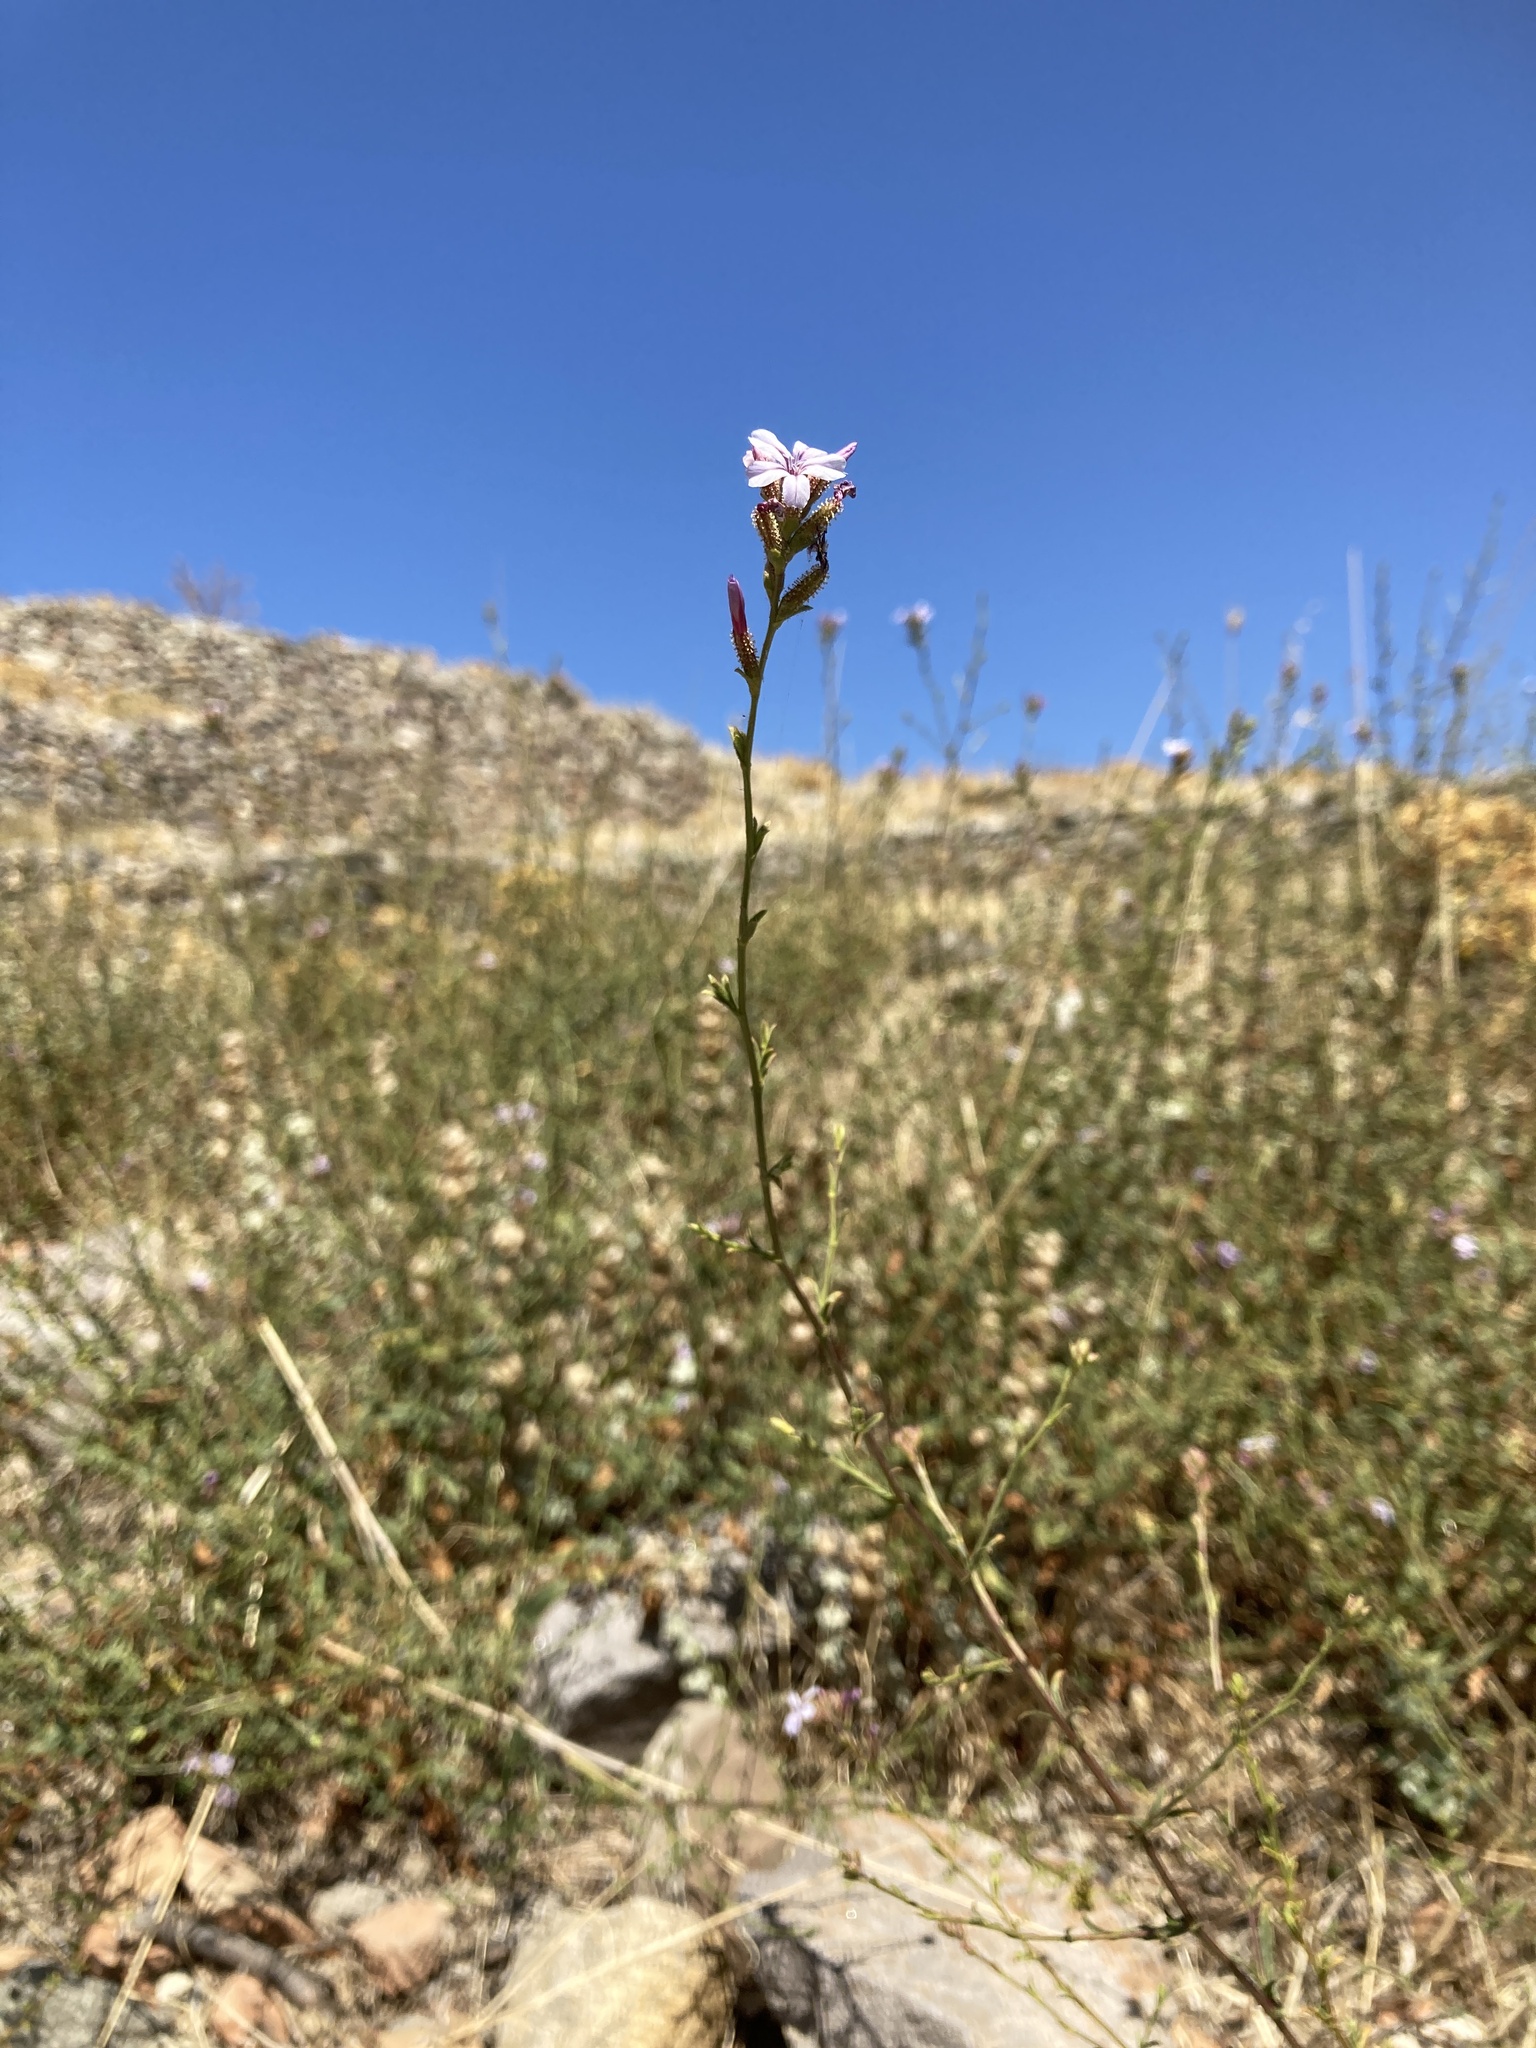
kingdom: Plantae
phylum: Tracheophyta
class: Magnoliopsida
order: Caryophyllales
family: Plumbaginaceae
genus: Plumbago
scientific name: Plumbago europaea
